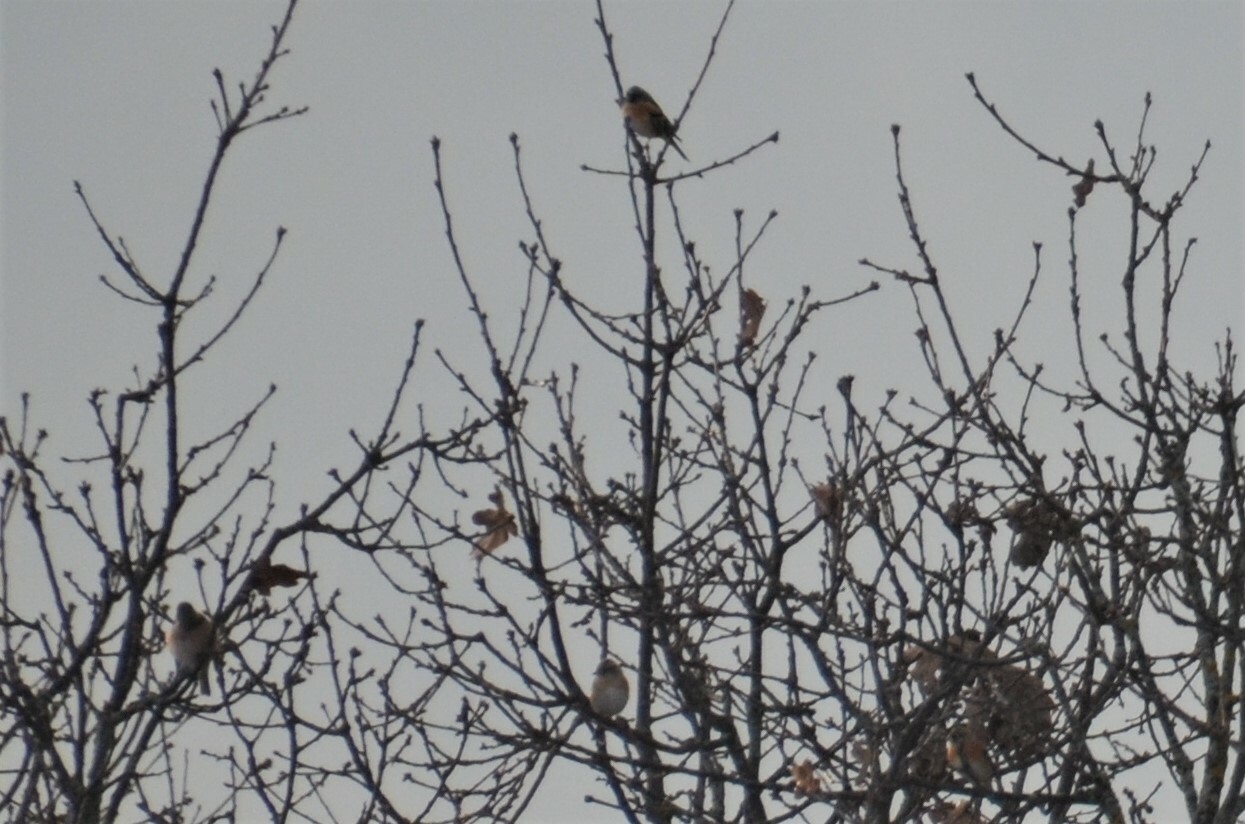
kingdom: Animalia
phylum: Chordata
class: Aves
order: Passeriformes
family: Fringillidae
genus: Fringilla
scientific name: Fringilla montifringilla
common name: Brambling
